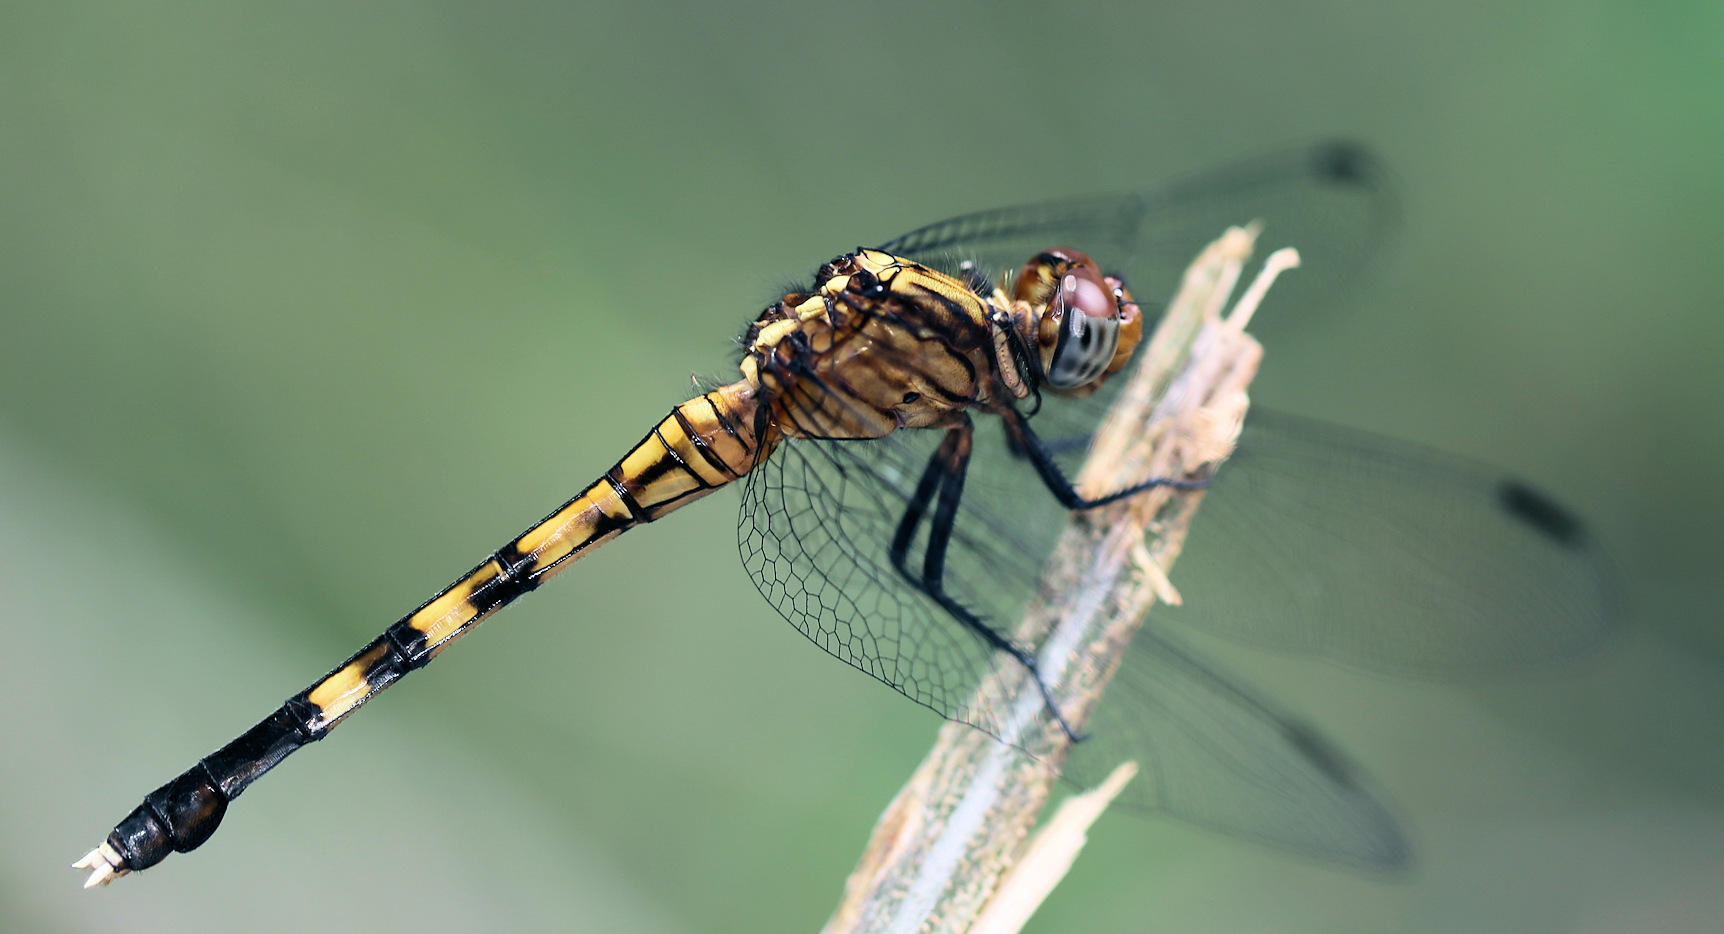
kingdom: Animalia
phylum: Arthropoda
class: Insecta
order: Odonata
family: Libellulidae
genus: Orthetrum
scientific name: Orthetrum julia
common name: Julia skimmer
